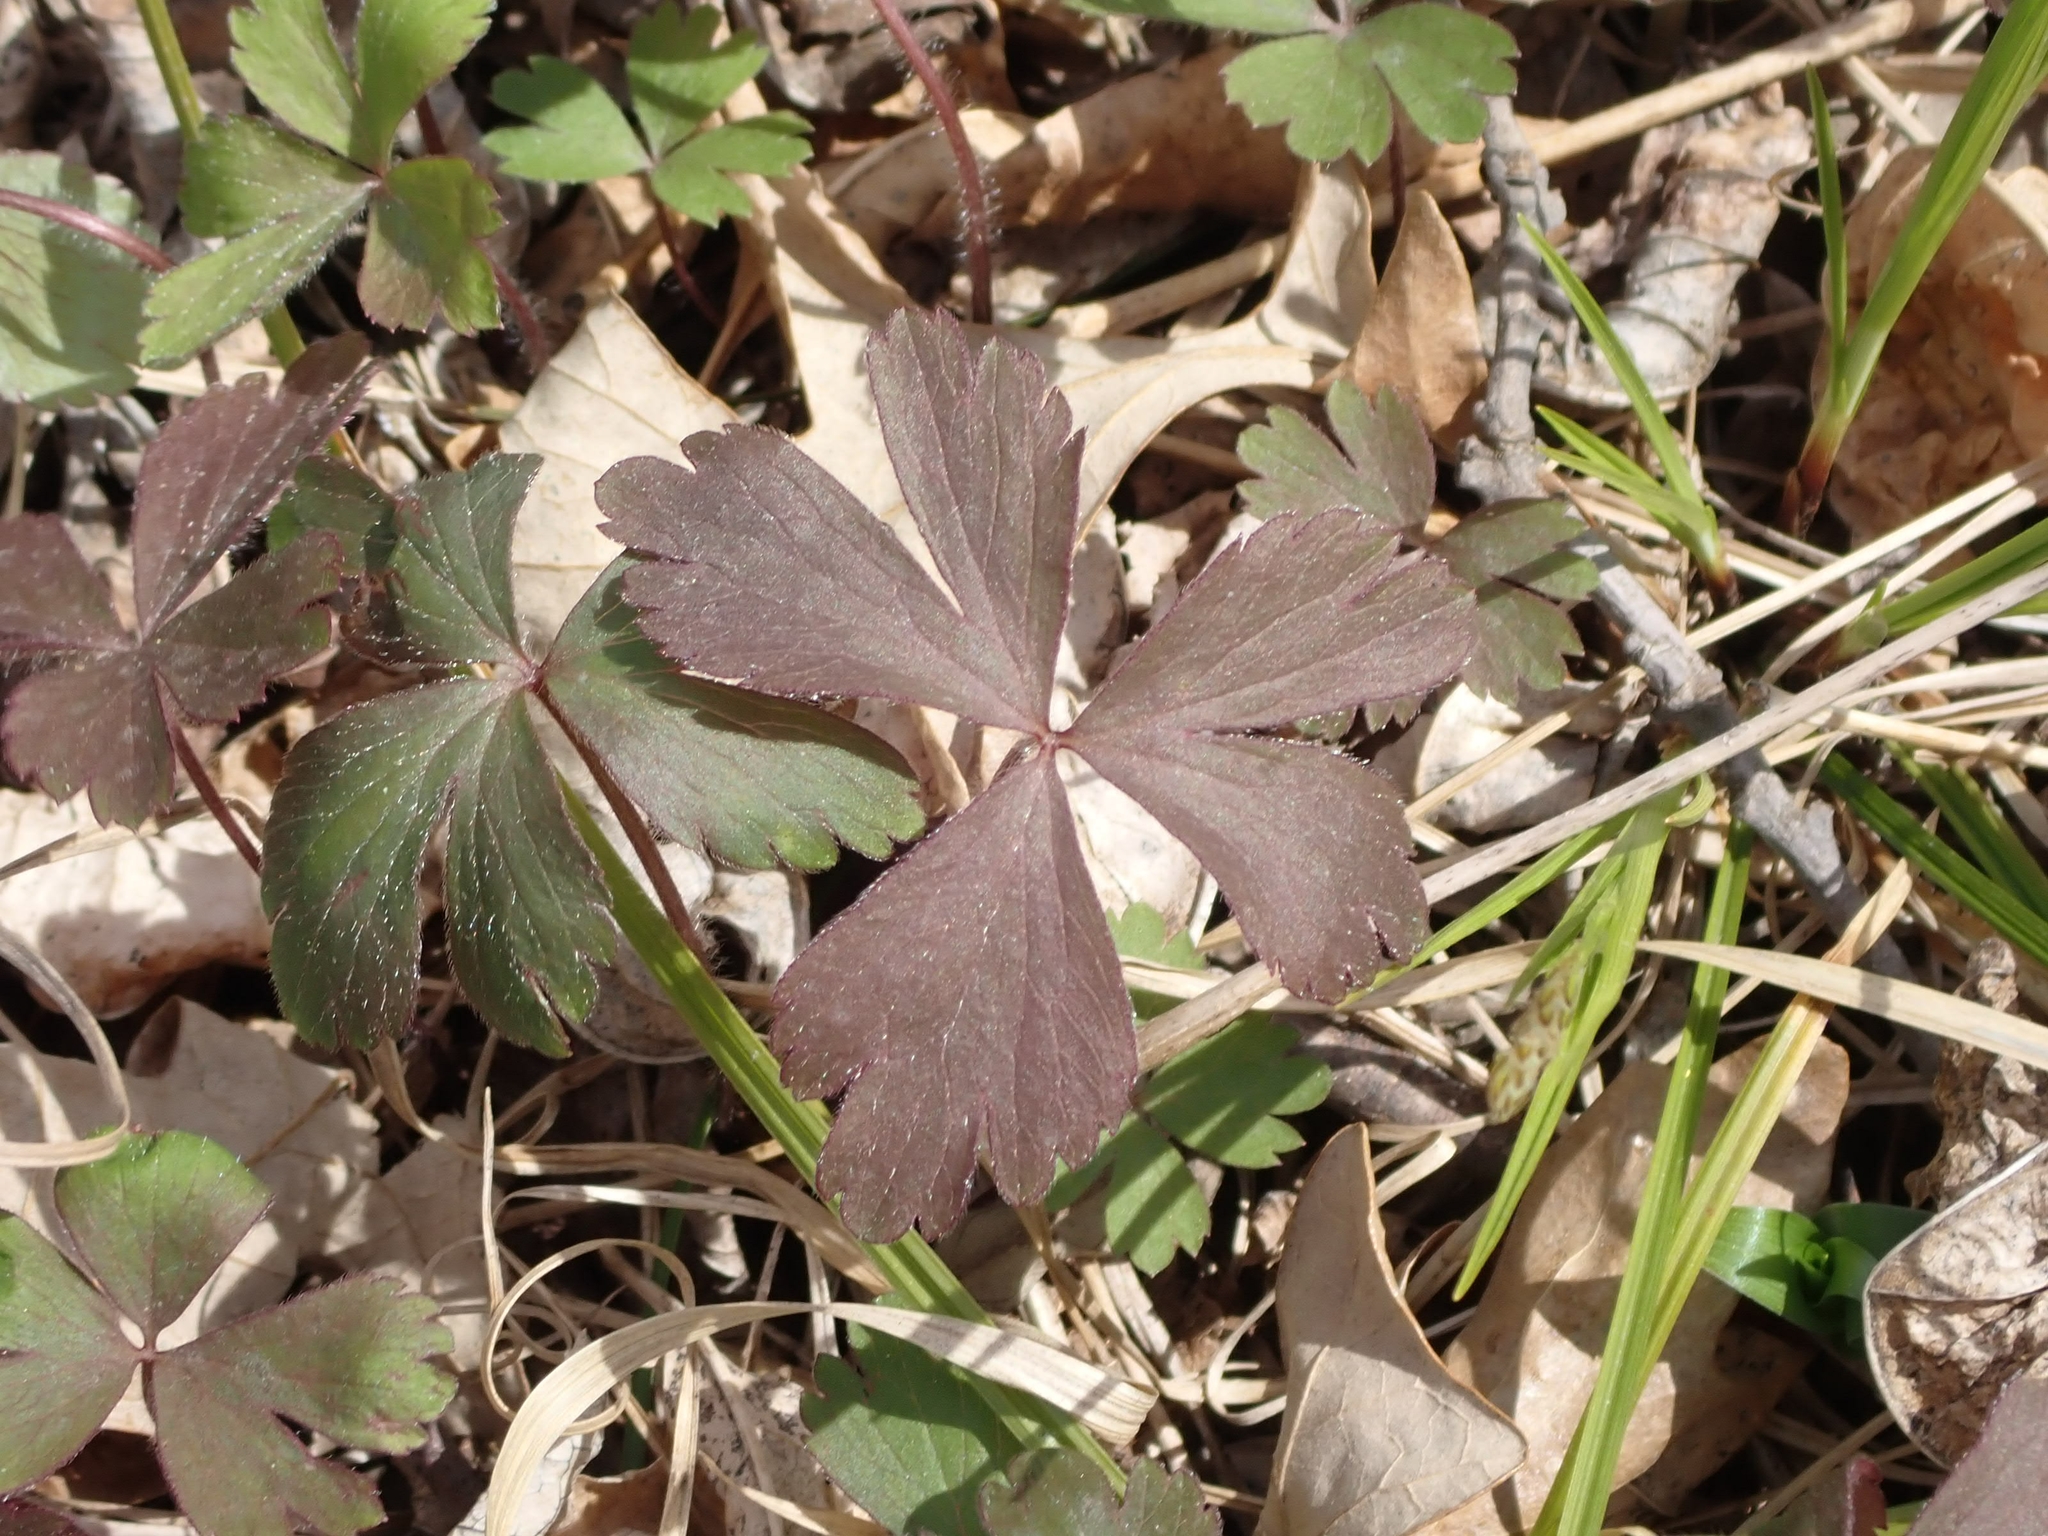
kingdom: Plantae
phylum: Tracheophyta
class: Magnoliopsida
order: Ranunculales
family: Ranunculaceae
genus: Anemone
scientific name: Anemone quinquefolia
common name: Wood anemone
